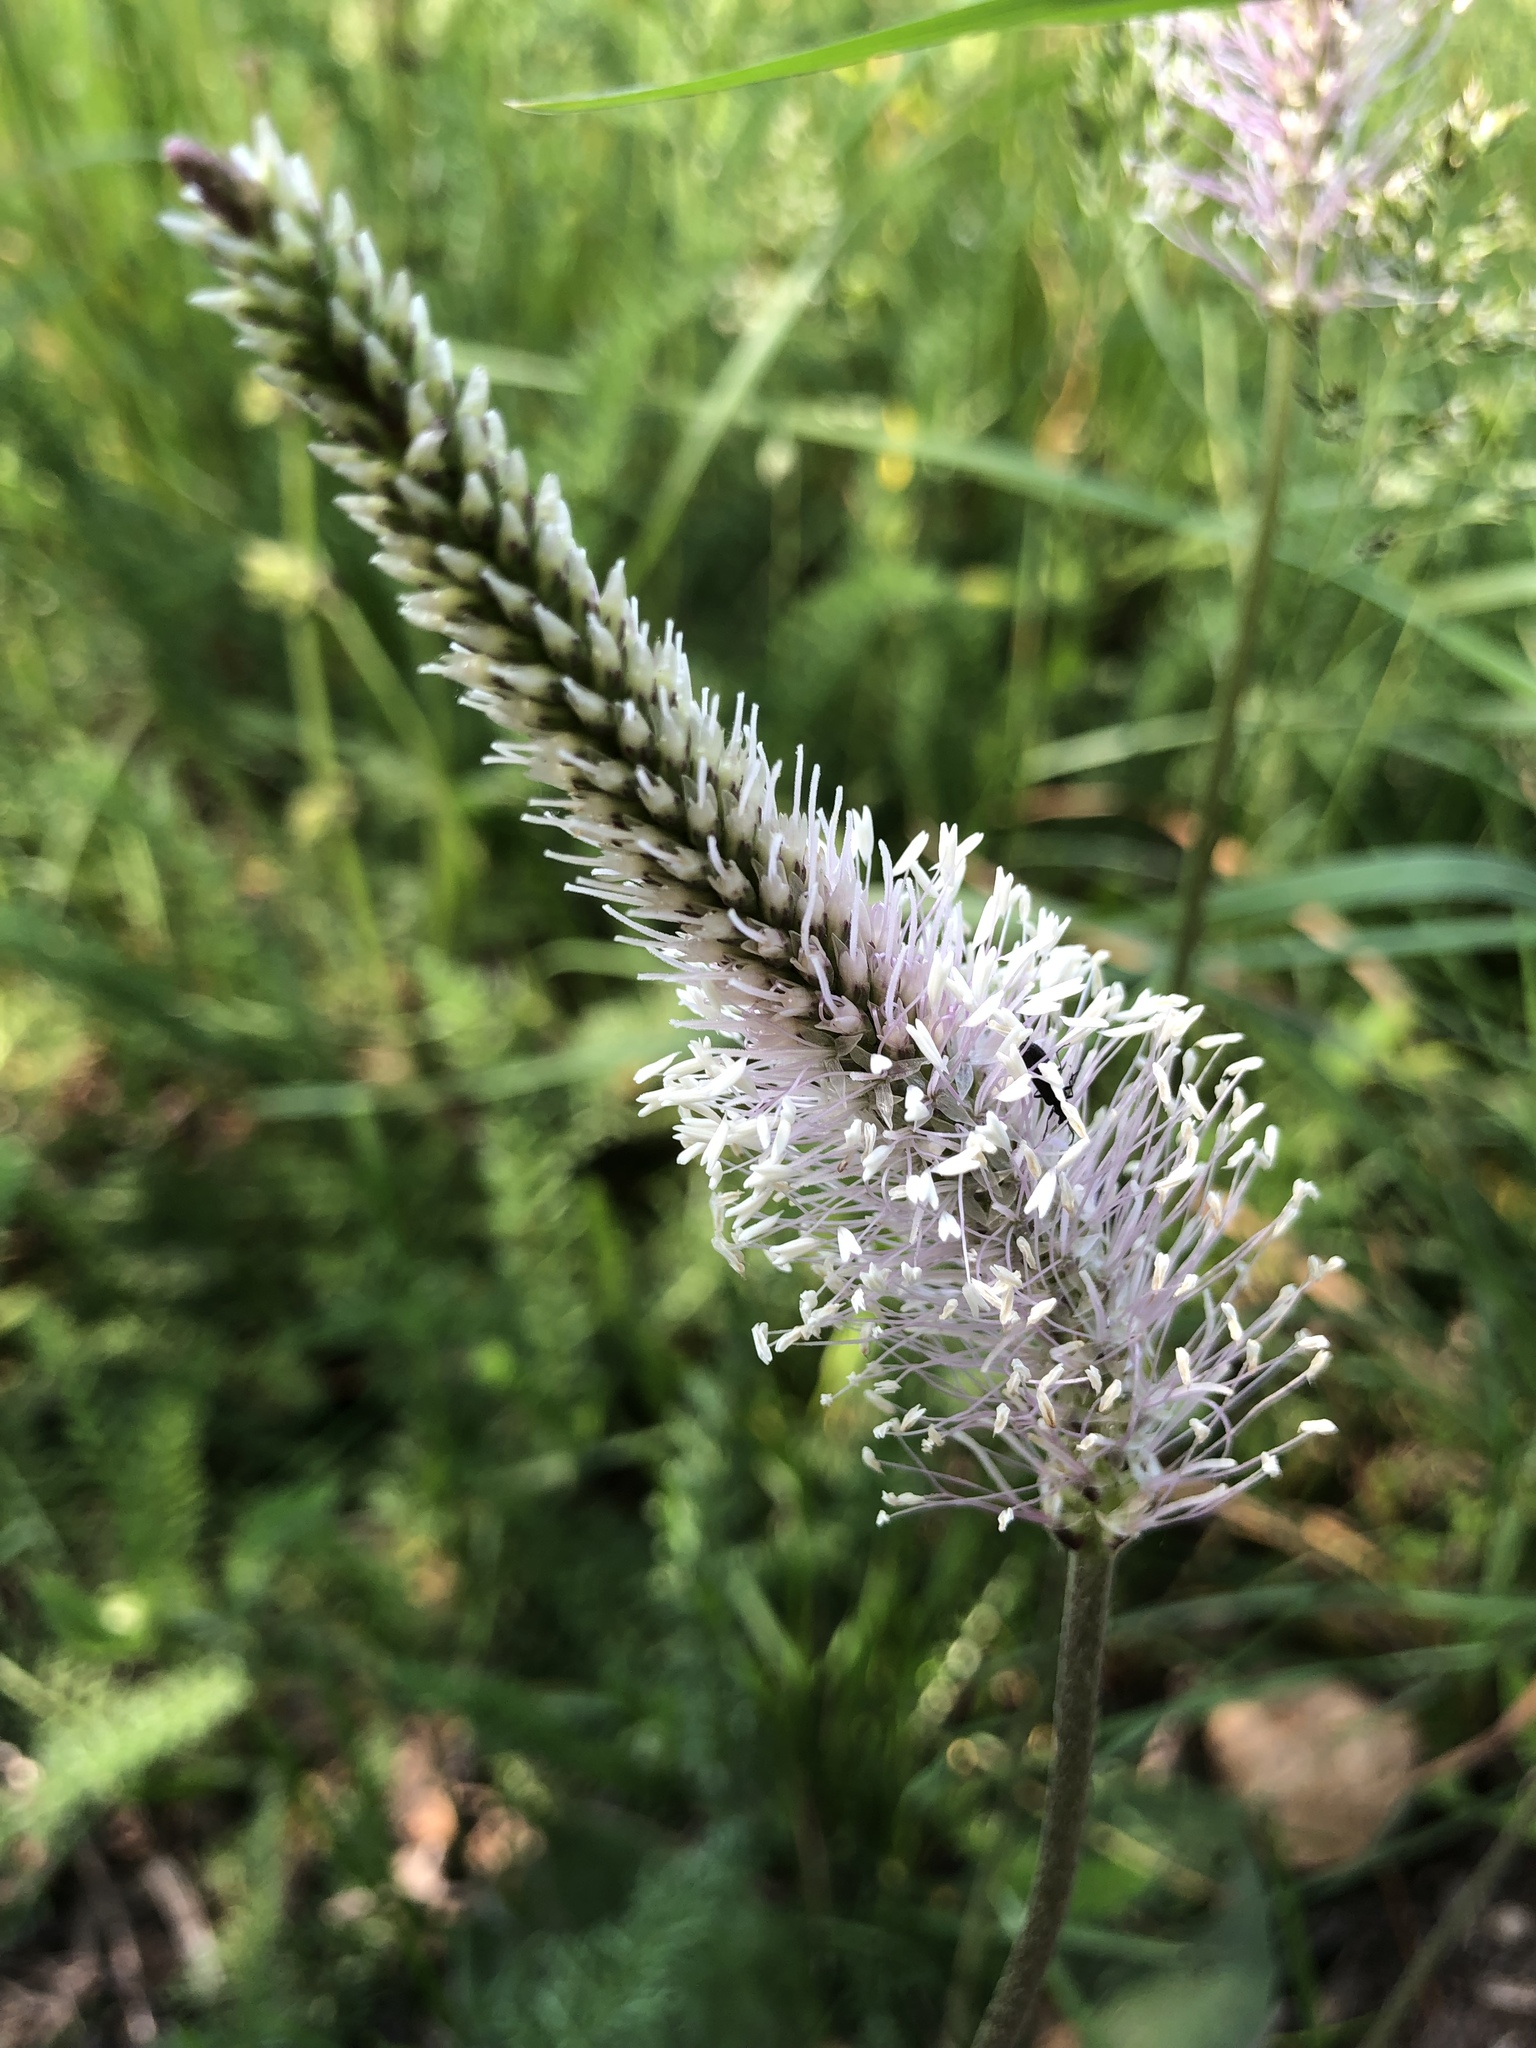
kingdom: Plantae
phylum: Tracheophyta
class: Magnoliopsida
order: Lamiales
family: Plantaginaceae
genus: Plantago
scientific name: Plantago media
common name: Hoary plantain
